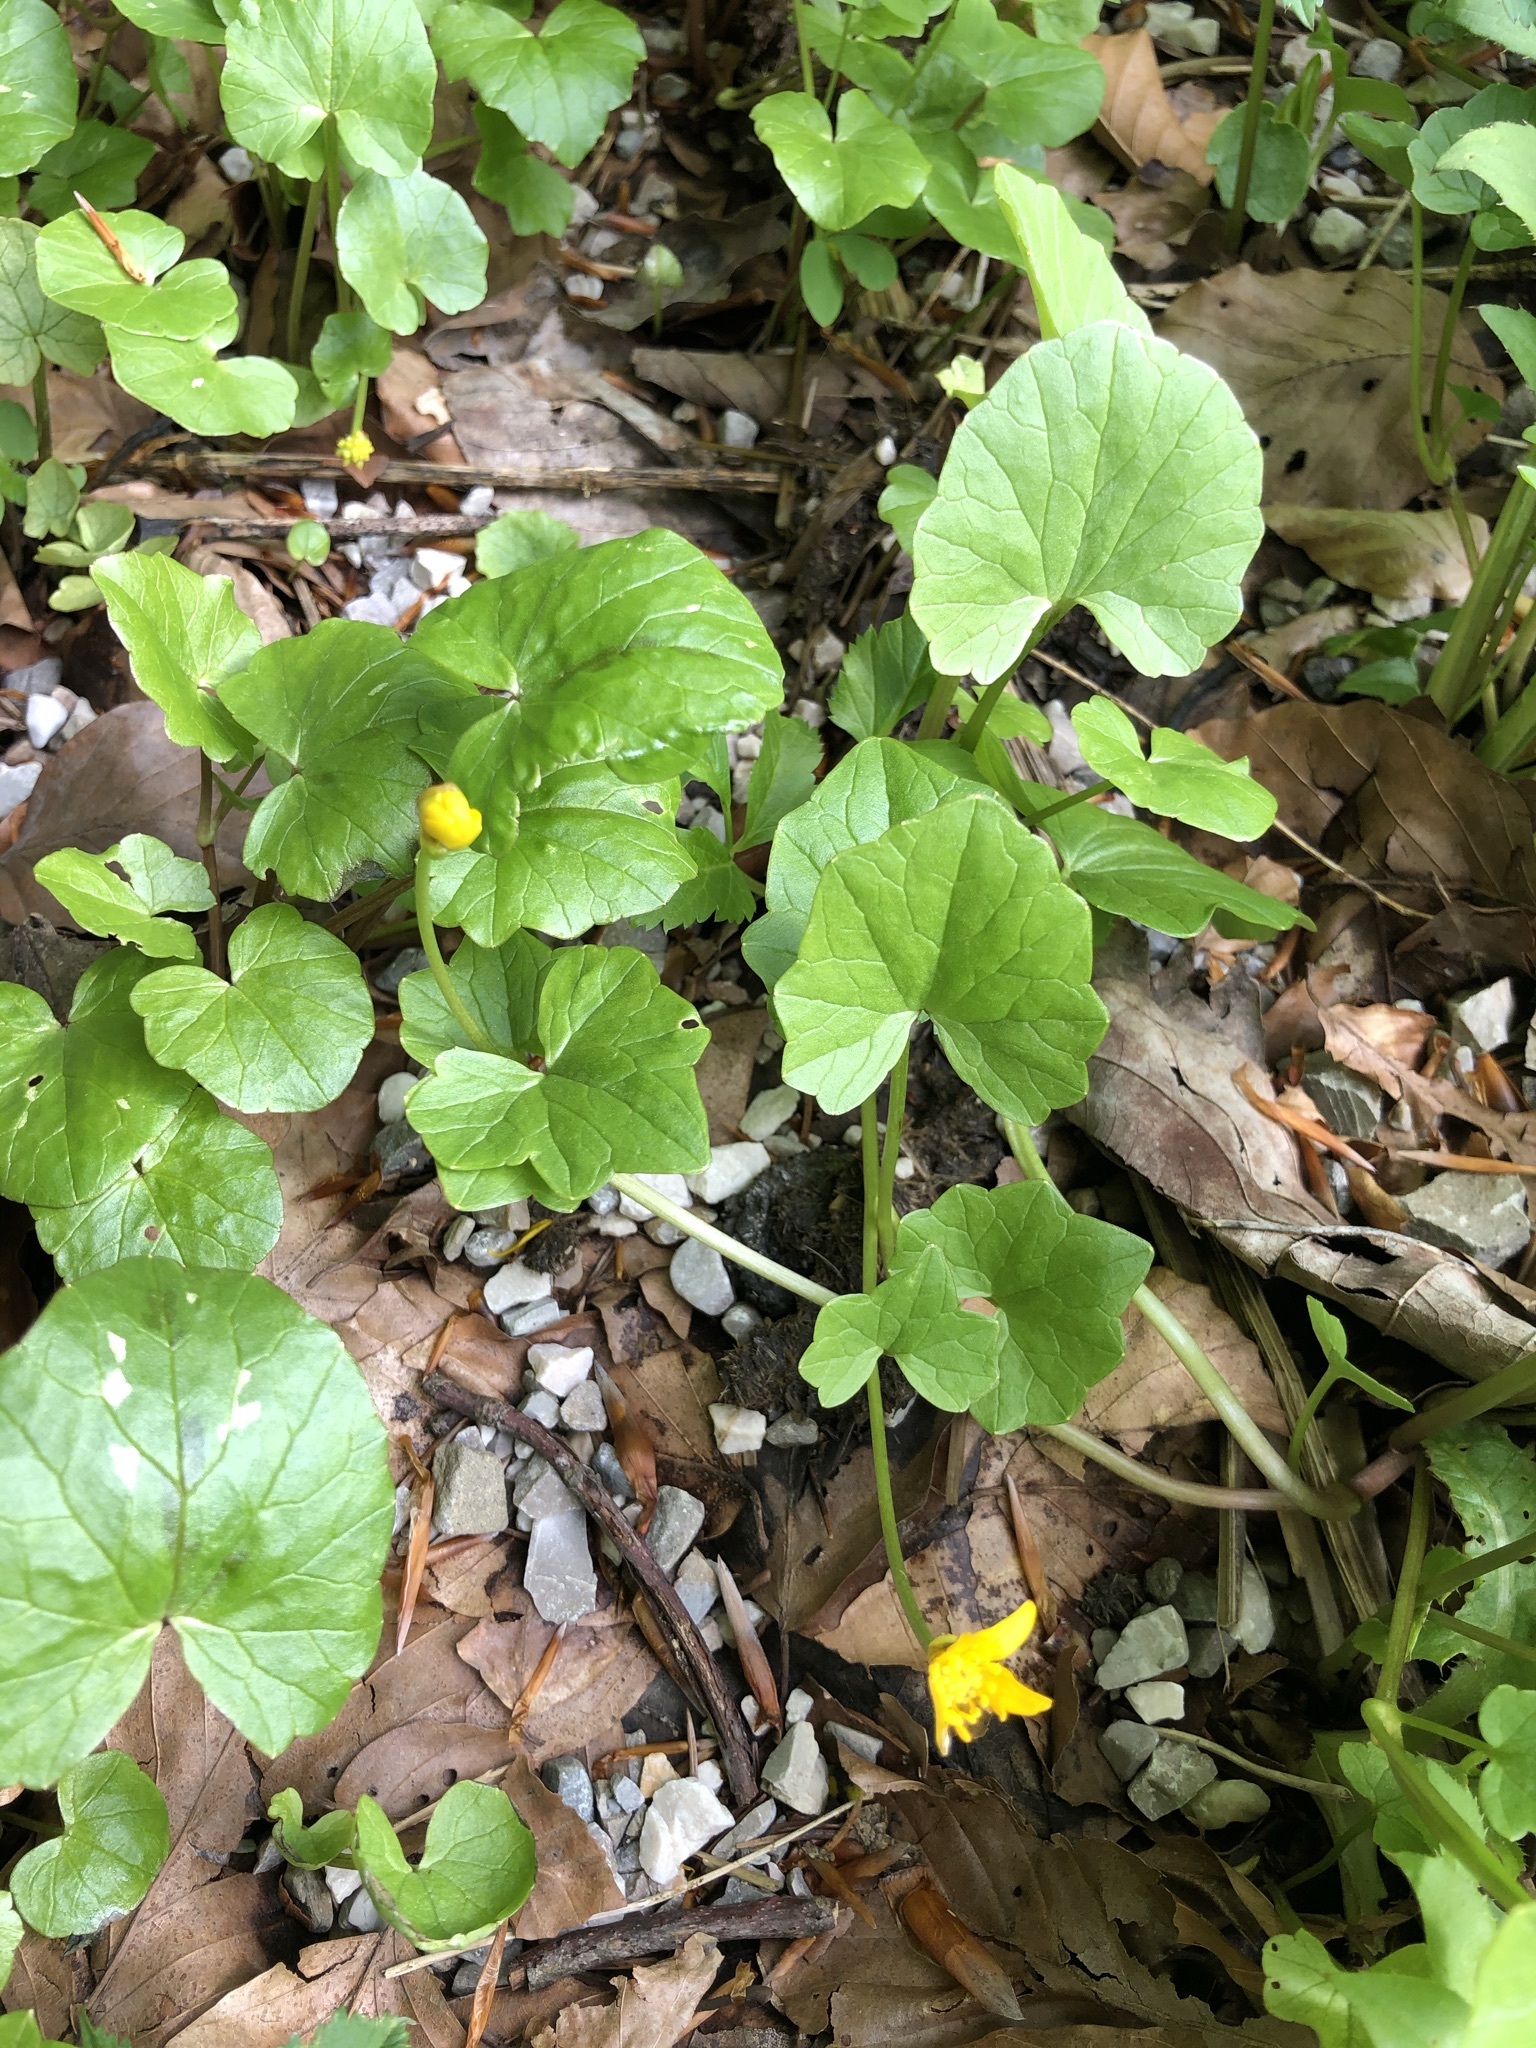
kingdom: Plantae
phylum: Tracheophyta
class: Magnoliopsida
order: Ranunculales
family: Ranunculaceae
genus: Ficaria
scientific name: Ficaria verna
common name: Lesser celandine
